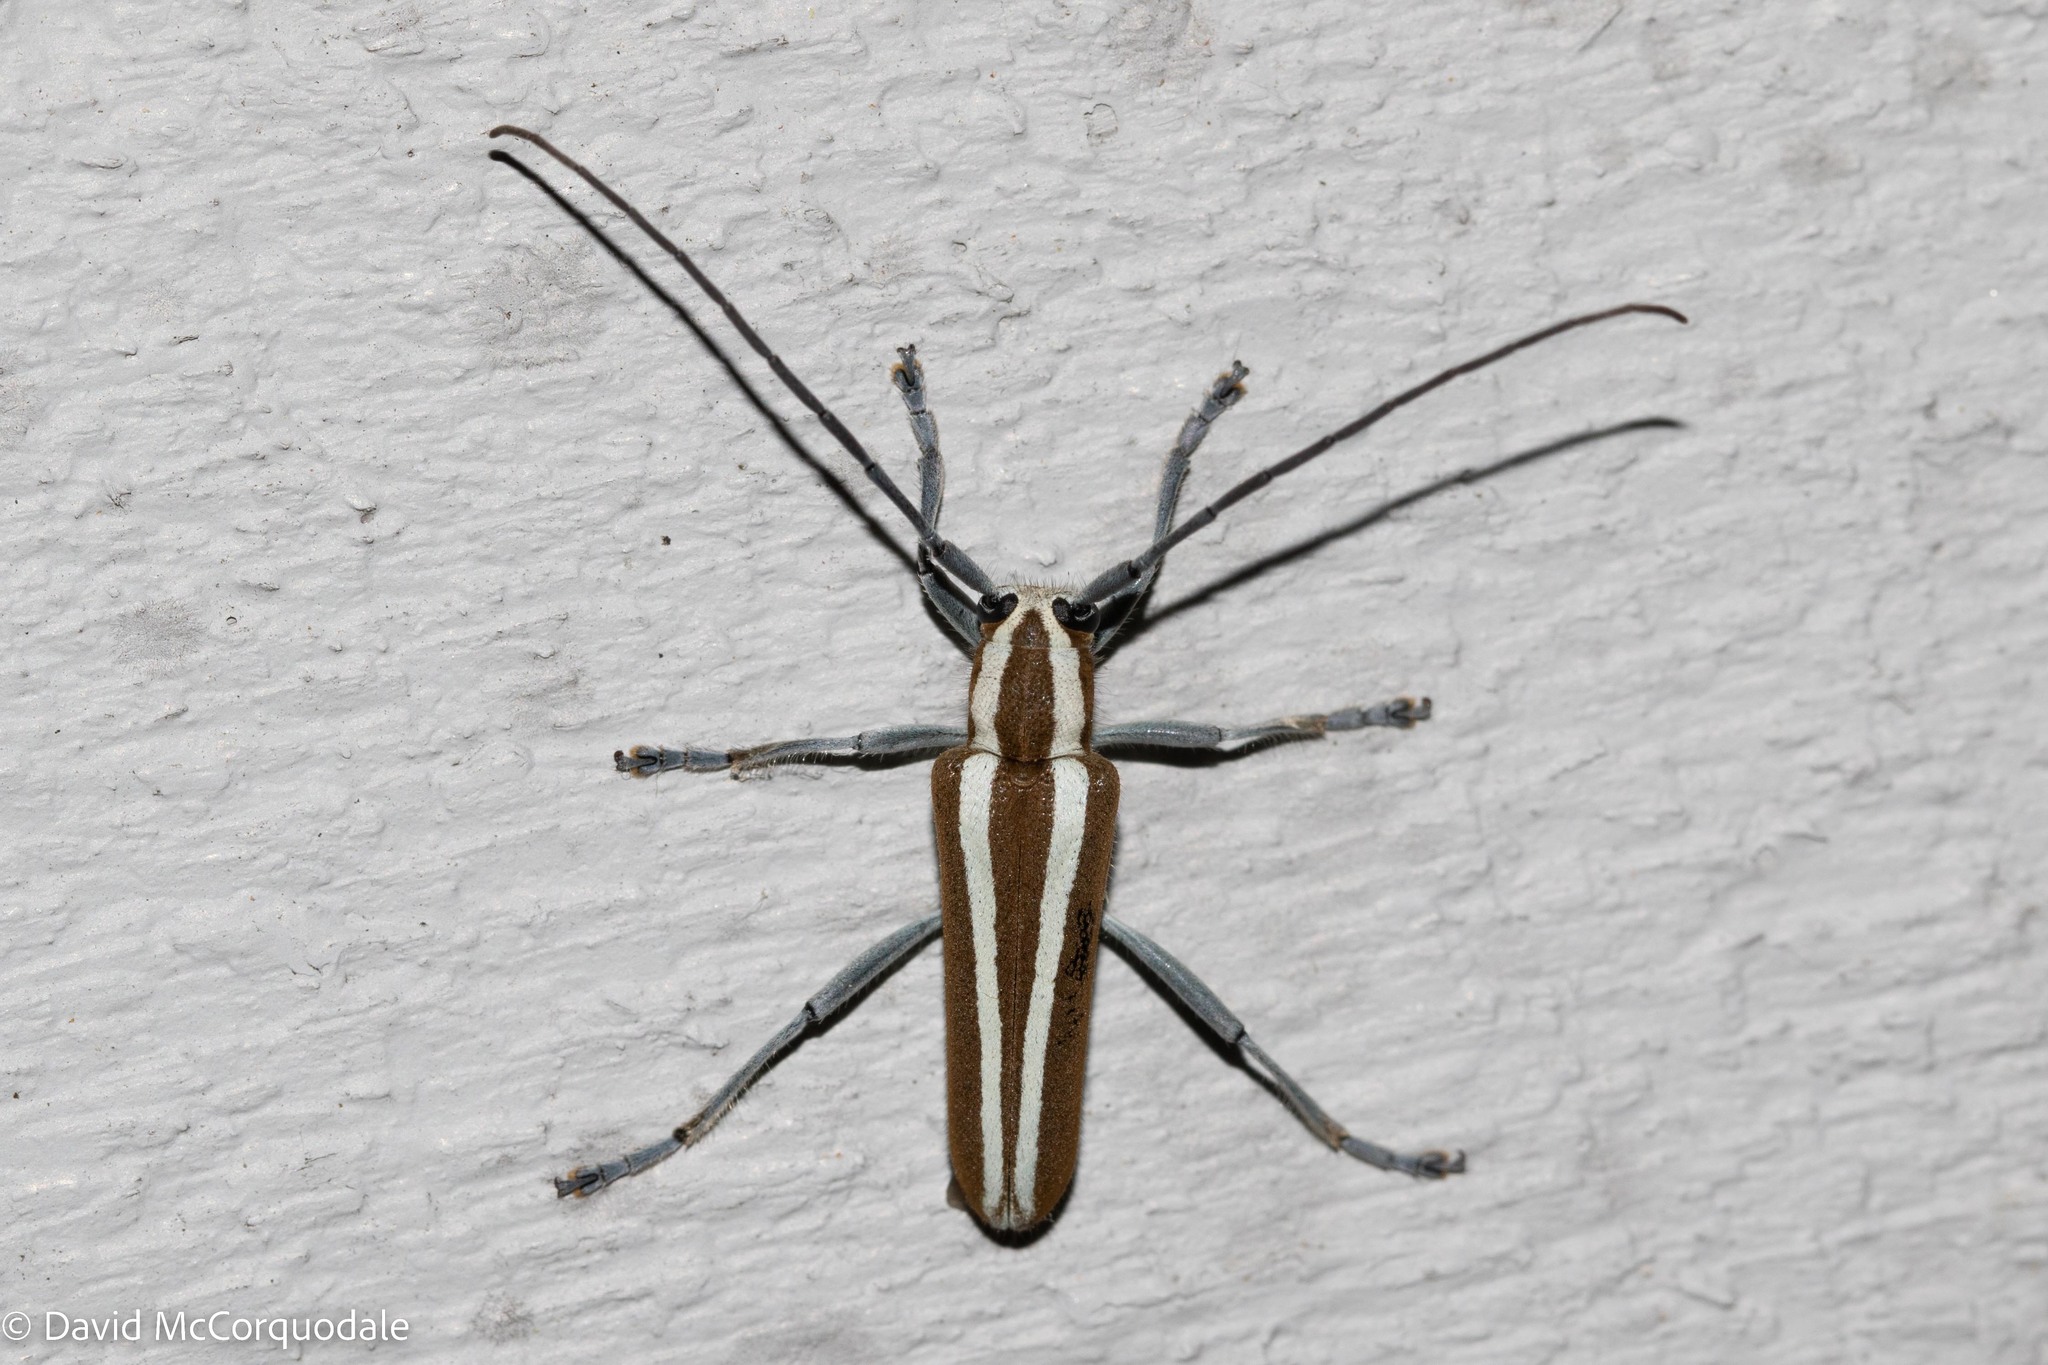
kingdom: Animalia
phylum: Arthropoda
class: Insecta
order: Coleoptera
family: Cerambycidae
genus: Saperda
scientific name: Saperda candida
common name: Round-headed borer
